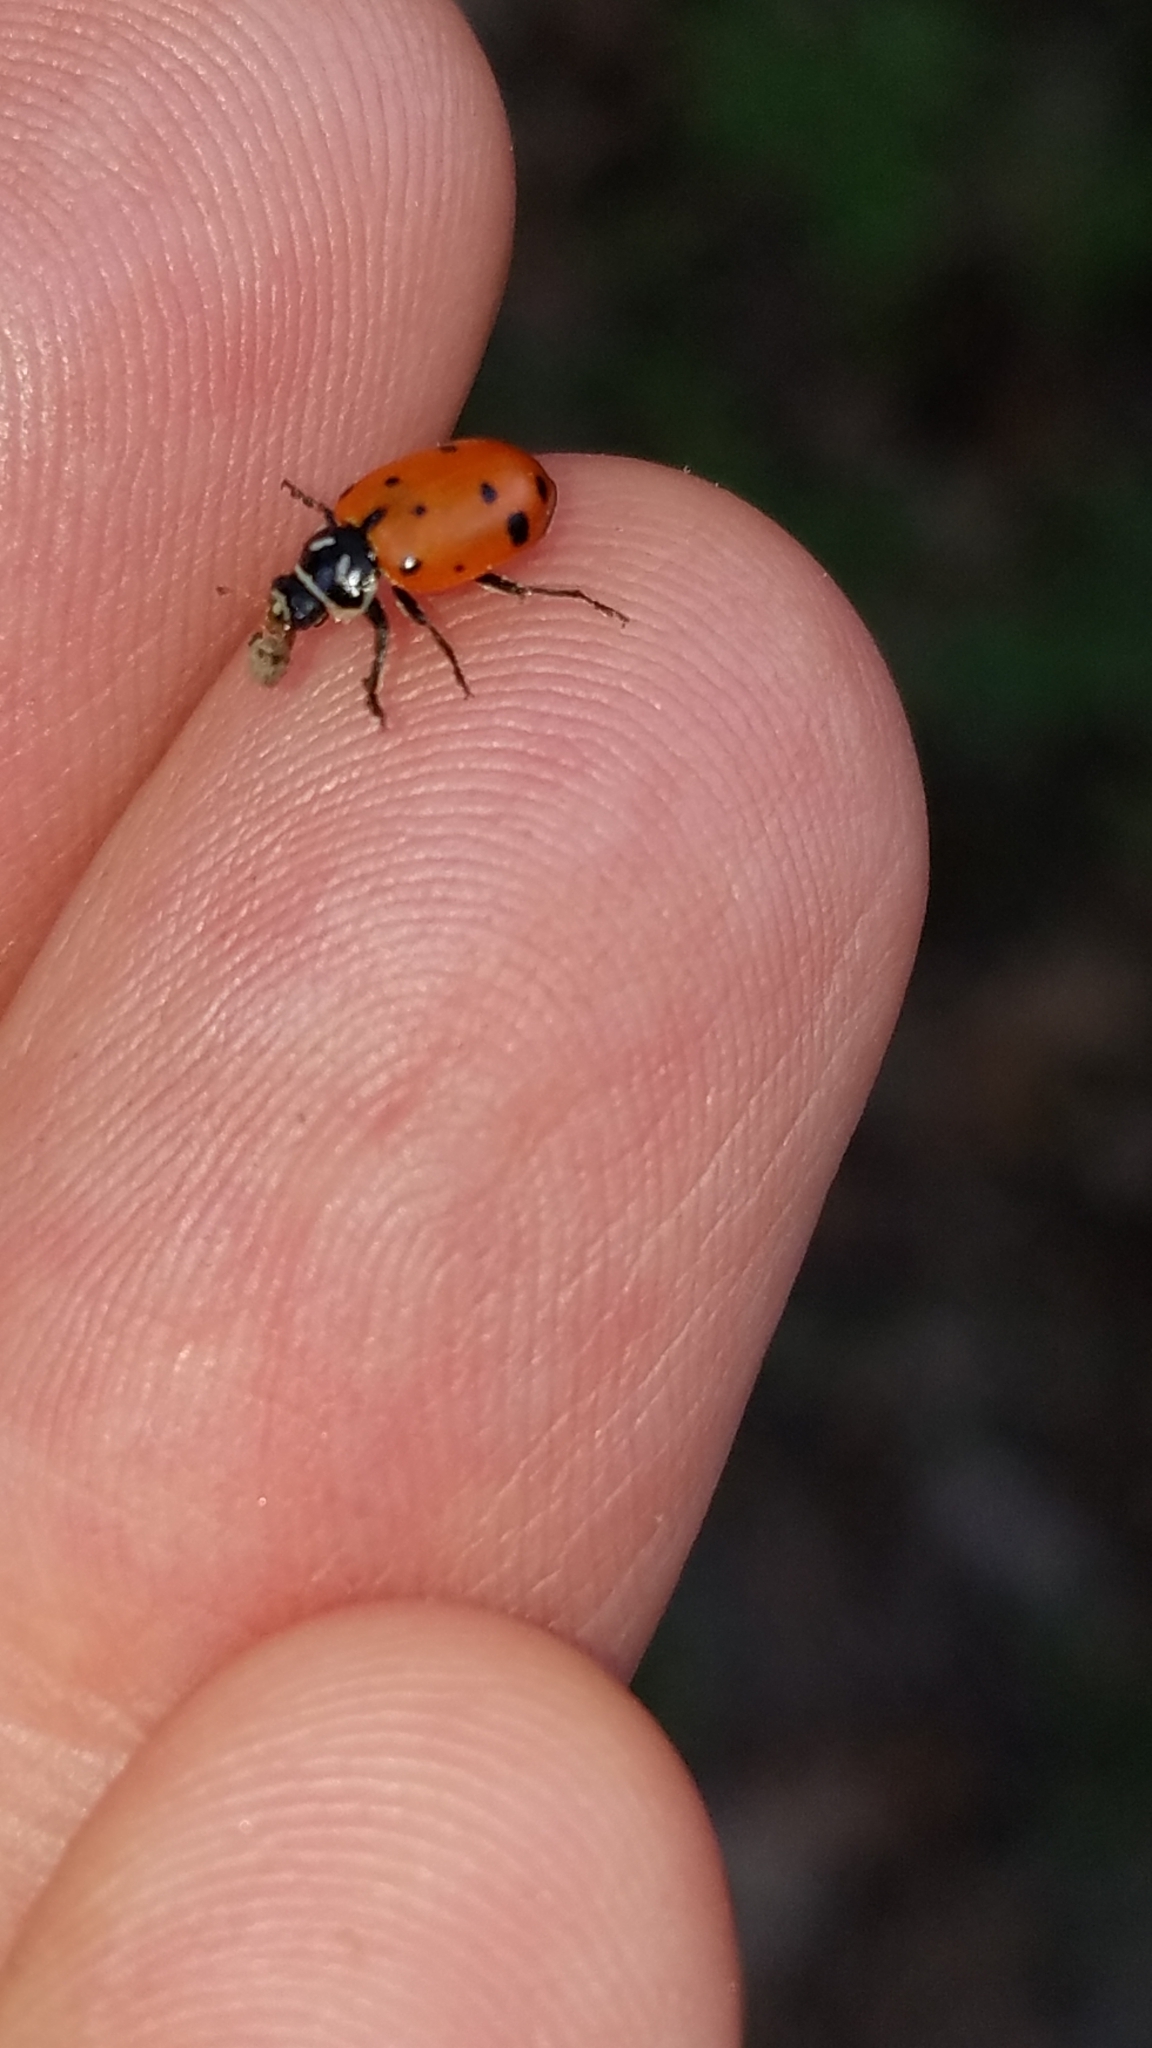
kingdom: Animalia
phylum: Arthropoda
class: Insecta
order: Coleoptera
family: Coccinellidae
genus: Hippodamia
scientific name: Hippodamia convergens
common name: Convergent lady beetle
